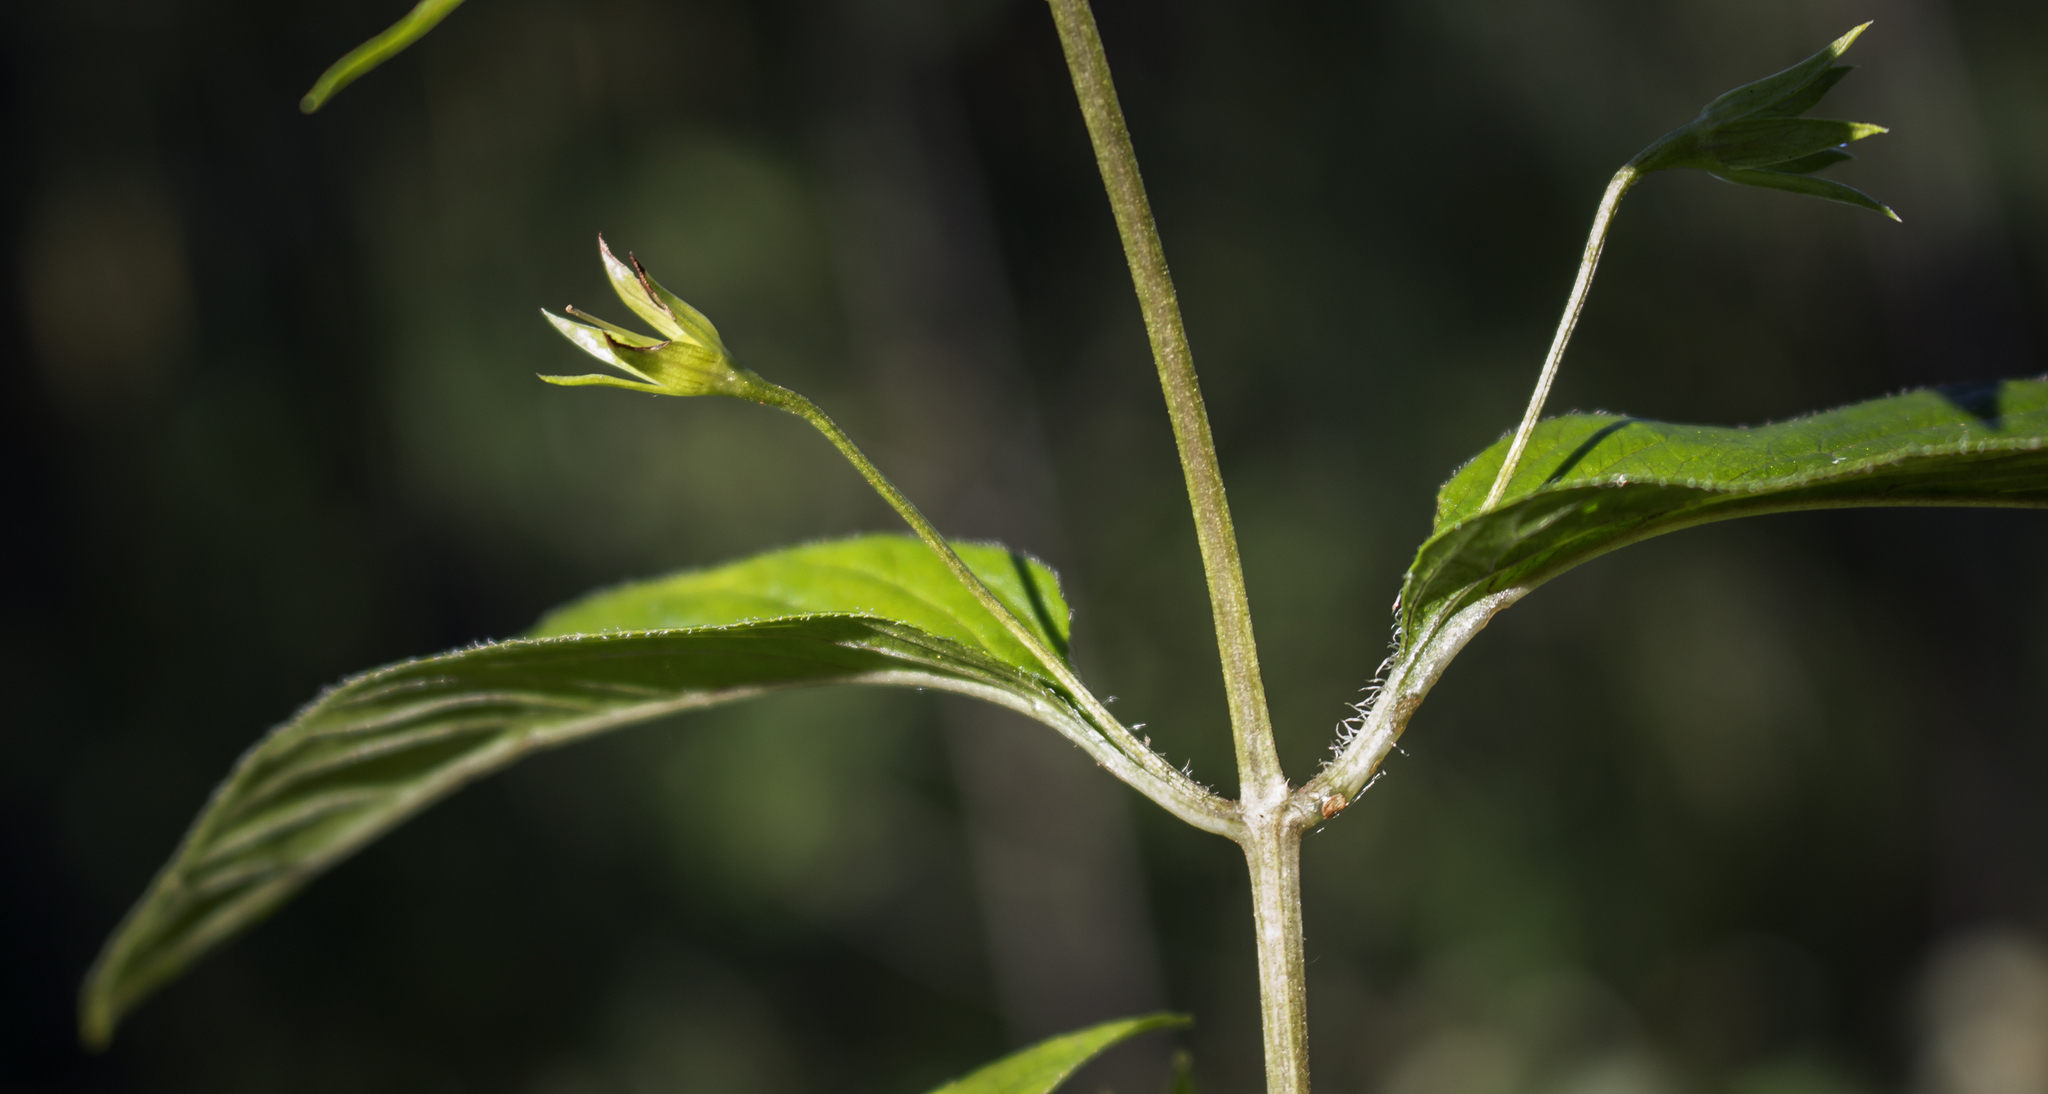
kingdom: Plantae
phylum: Tracheophyta
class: Magnoliopsida
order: Ericales
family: Primulaceae
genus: Lysimachia
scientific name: Lysimachia ciliata
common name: Fringed loosestrife
